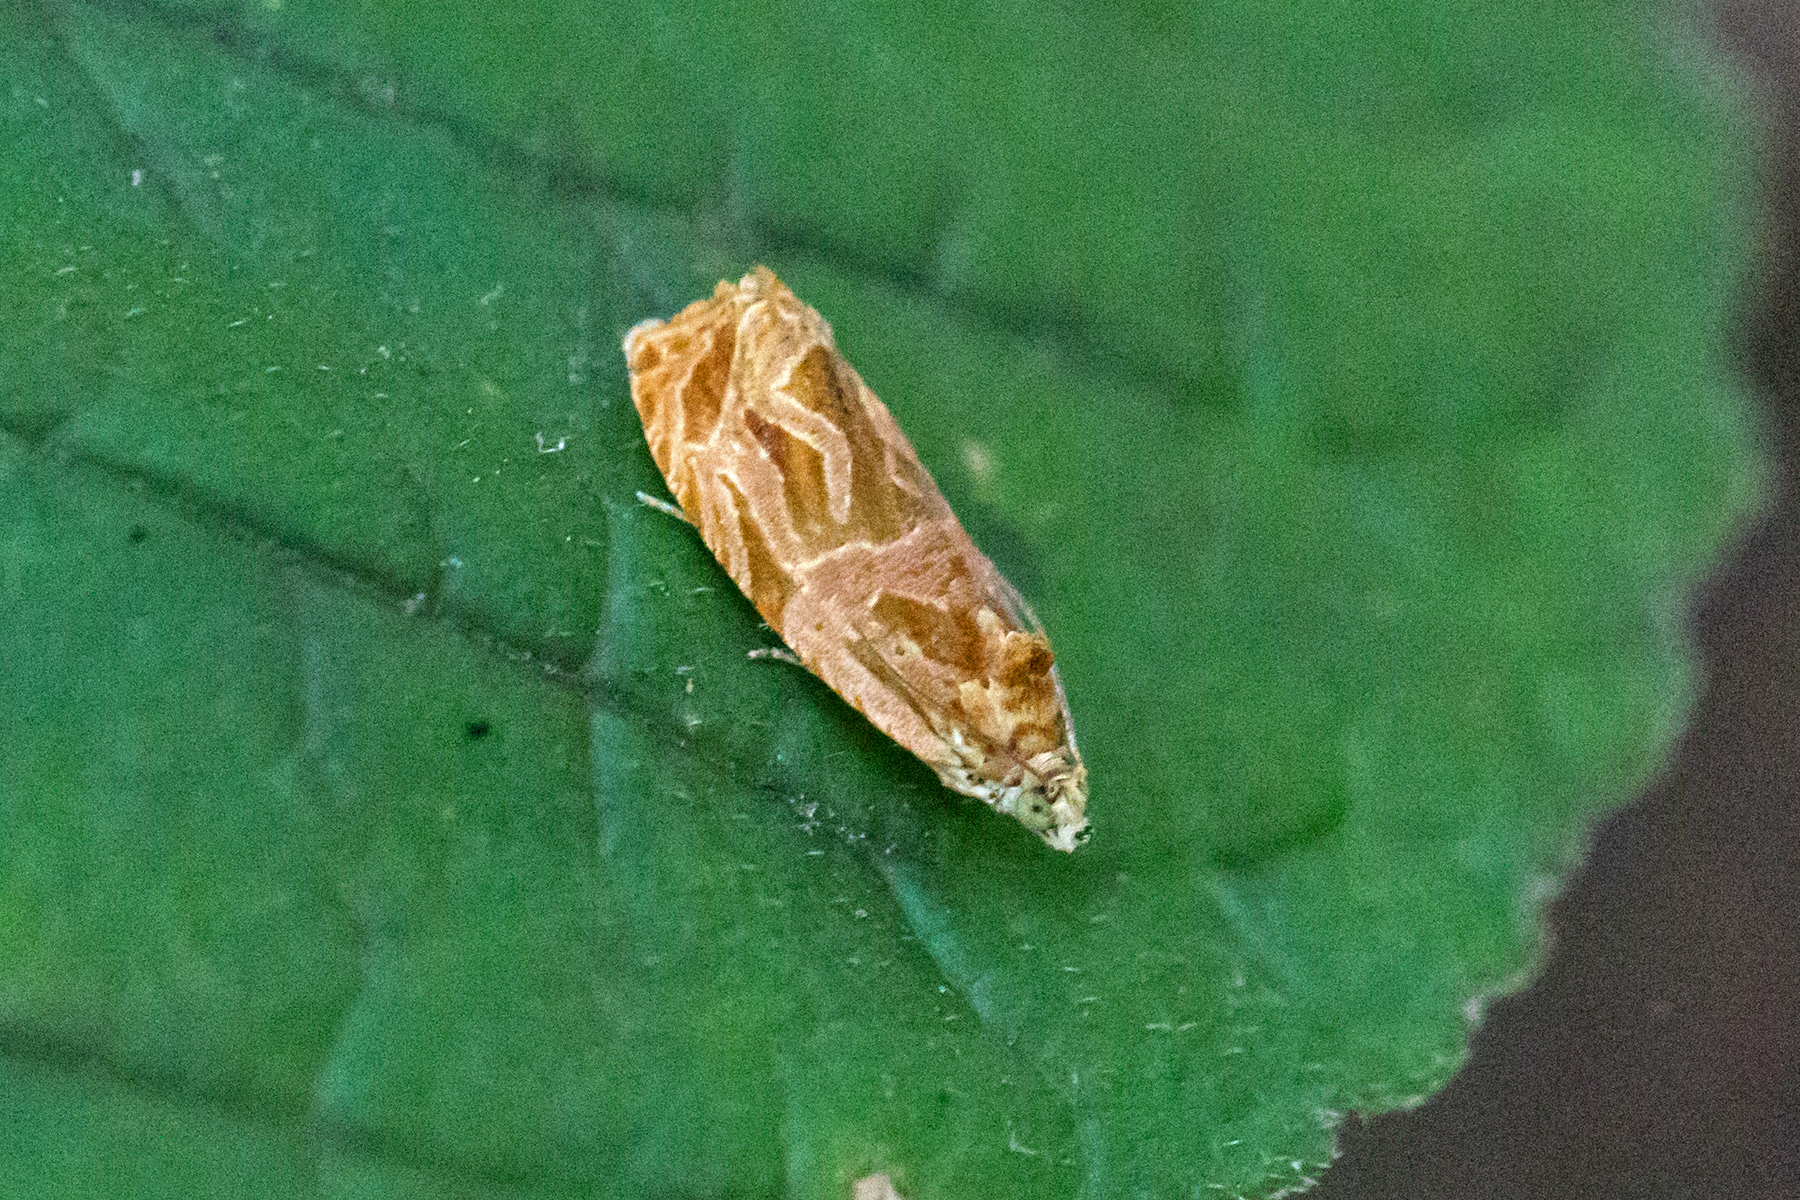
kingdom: Animalia
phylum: Arthropoda
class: Insecta
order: Lepidoptera
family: Tortricidae
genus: Olethreutes
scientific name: Olethreutes nitidana
